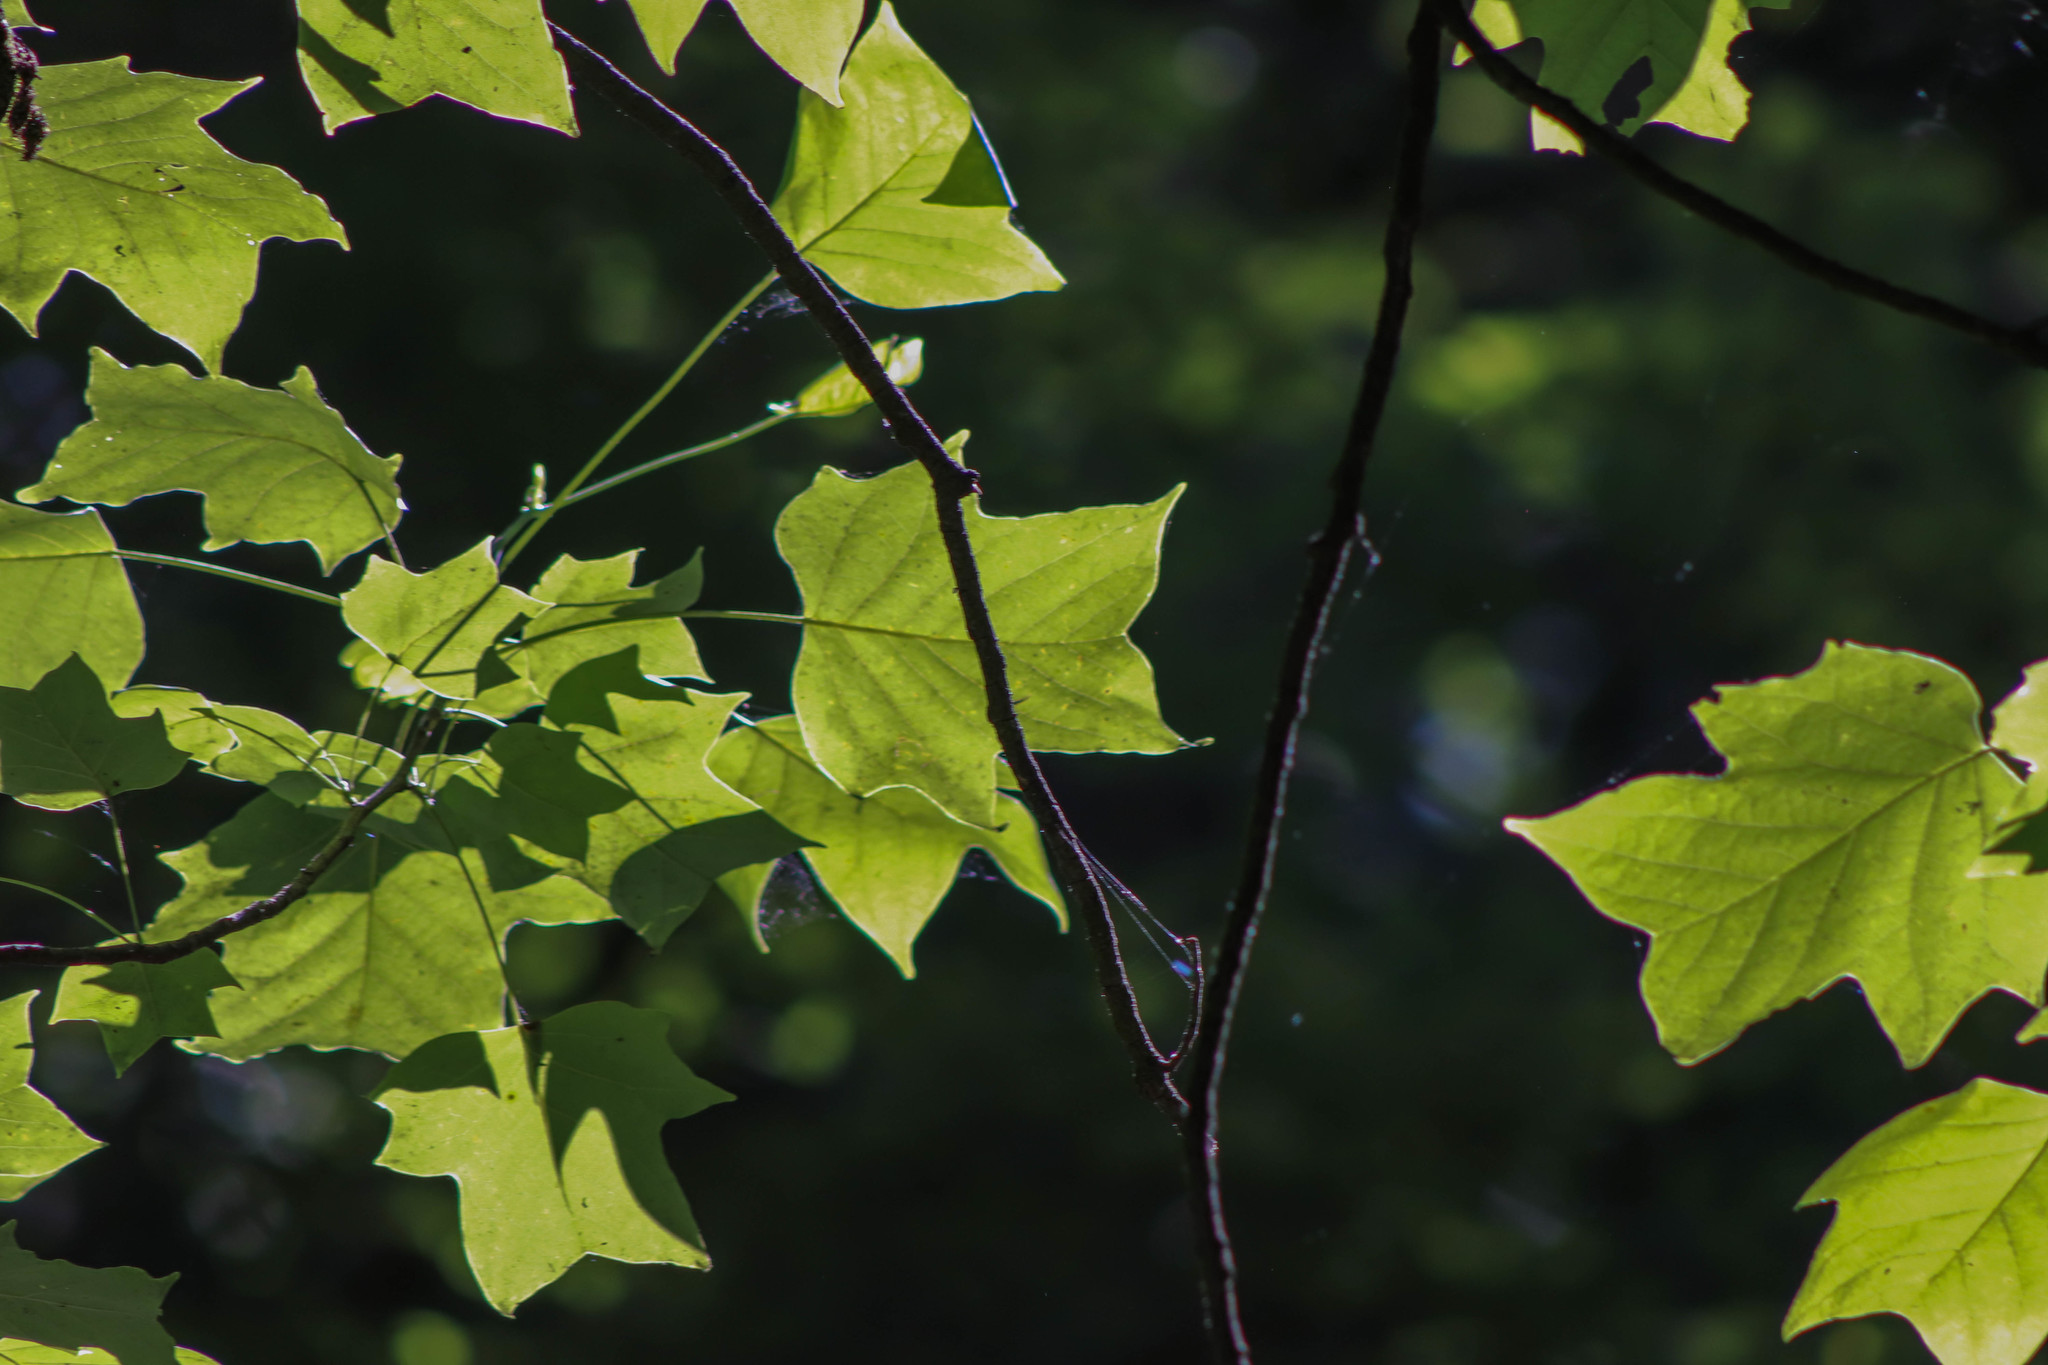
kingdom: Plantae
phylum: Tracheophyta
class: Magnoliopsida
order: Magnoliales
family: Magnoliaceae
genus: Liriodendron
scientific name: Liriodendron tulipifera
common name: Tulip tree
